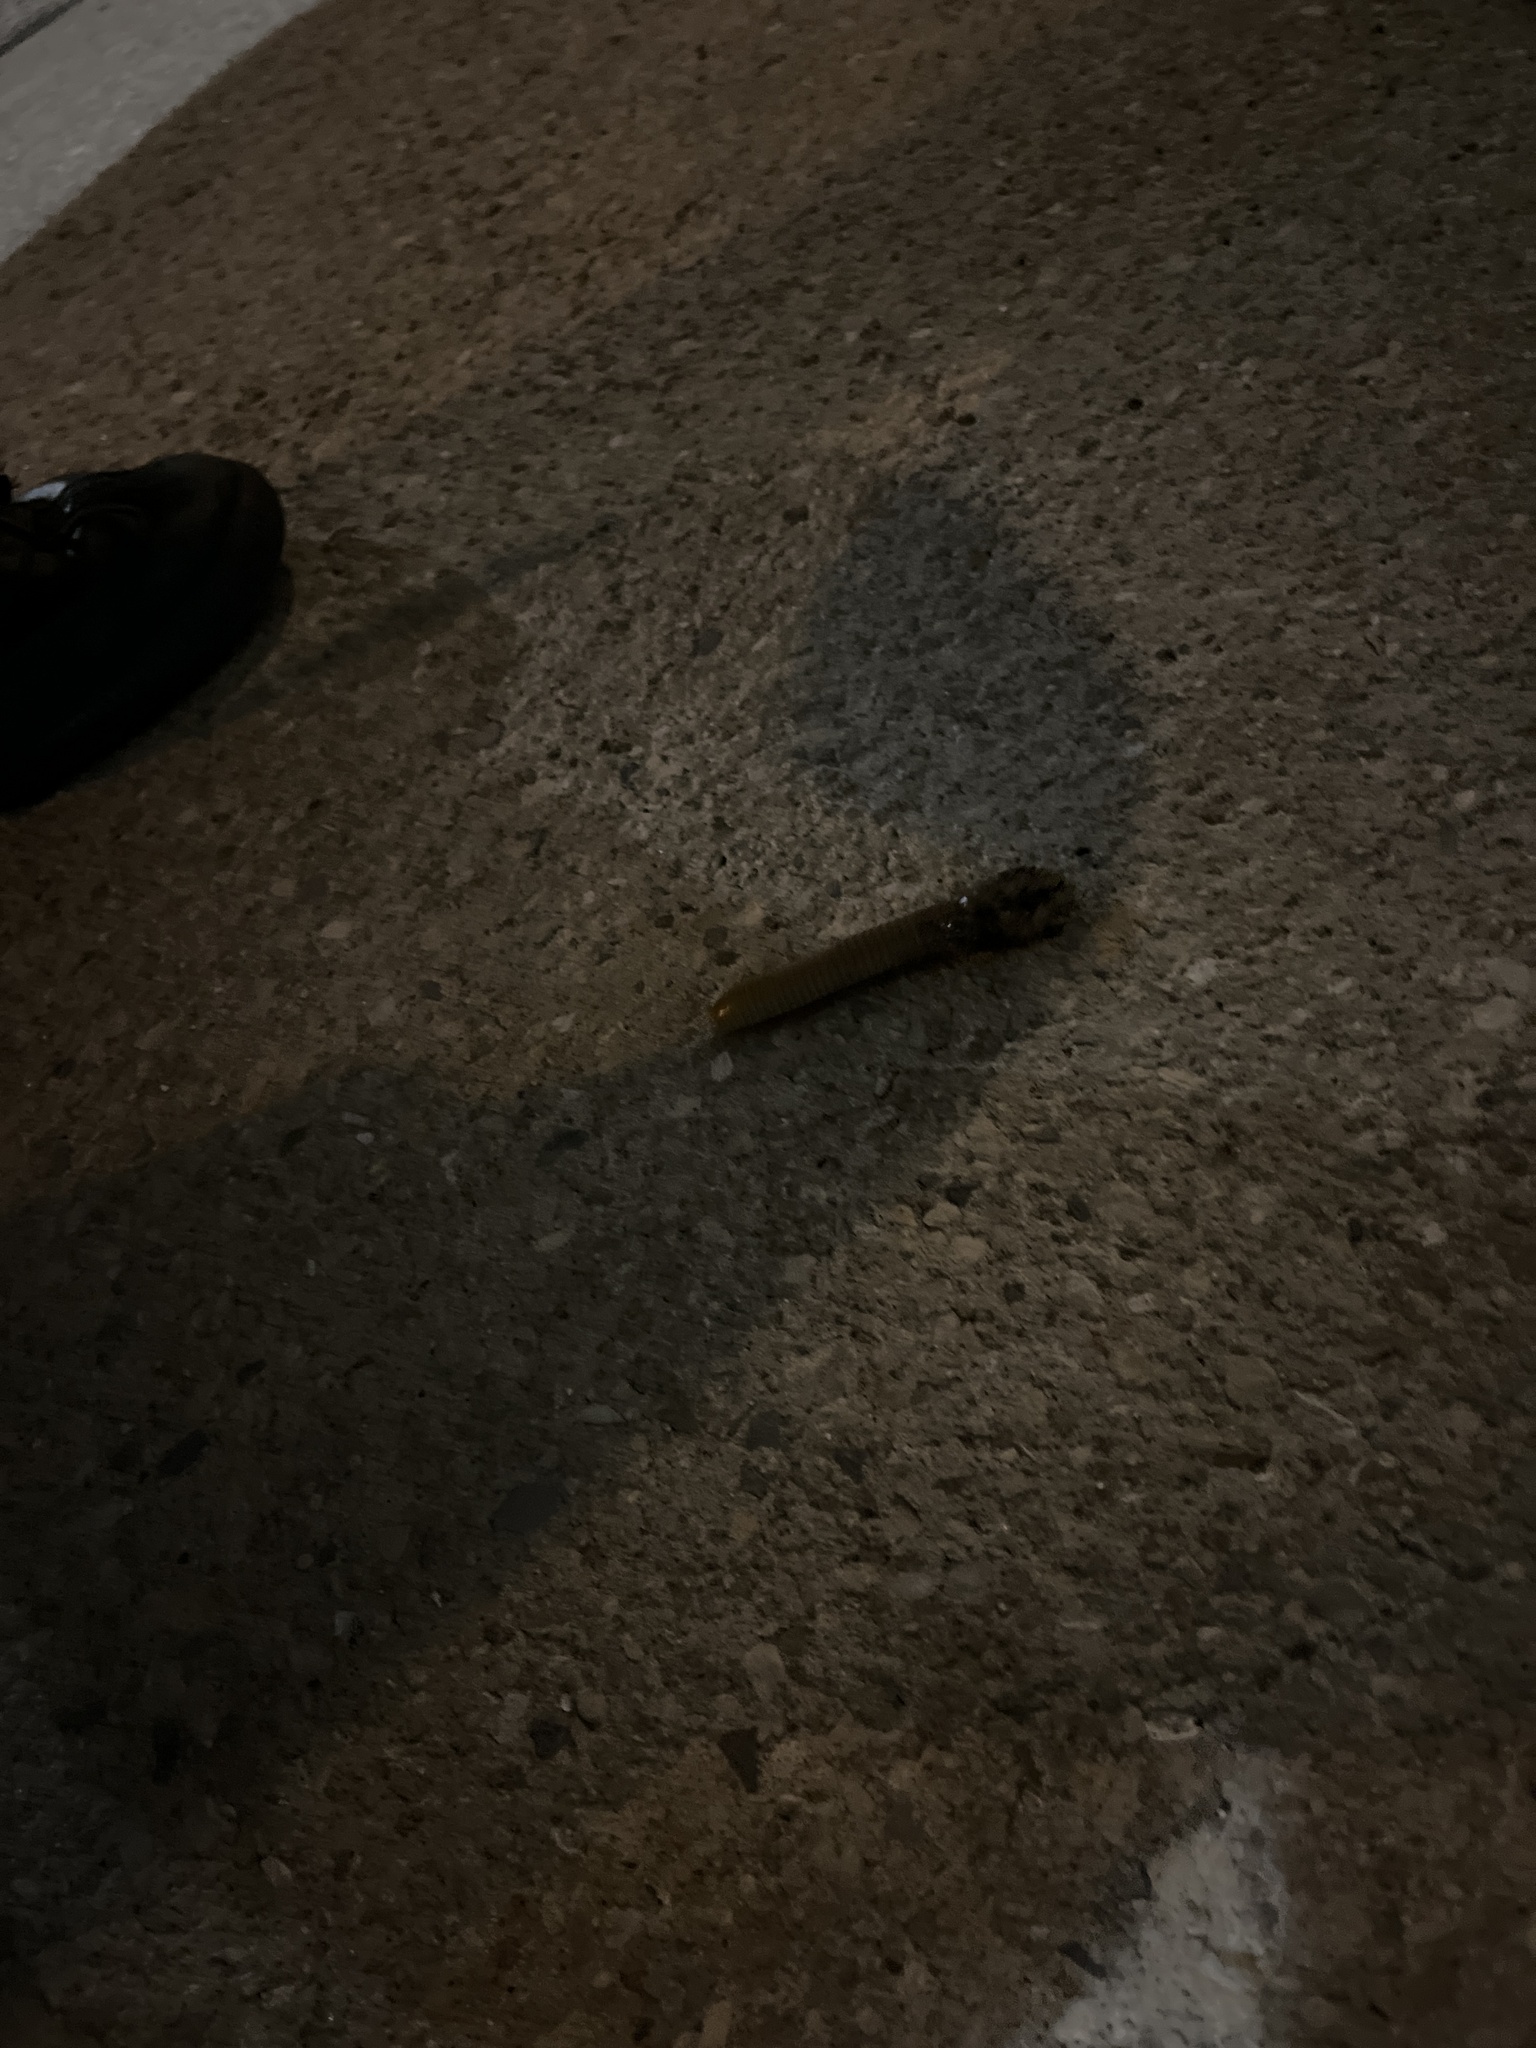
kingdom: Animalia
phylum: Arthropoda
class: Diplopoda
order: Spirobolida
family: Spirobolidae
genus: Narceus
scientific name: Narceus gordanus
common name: Grayish-green millipede
